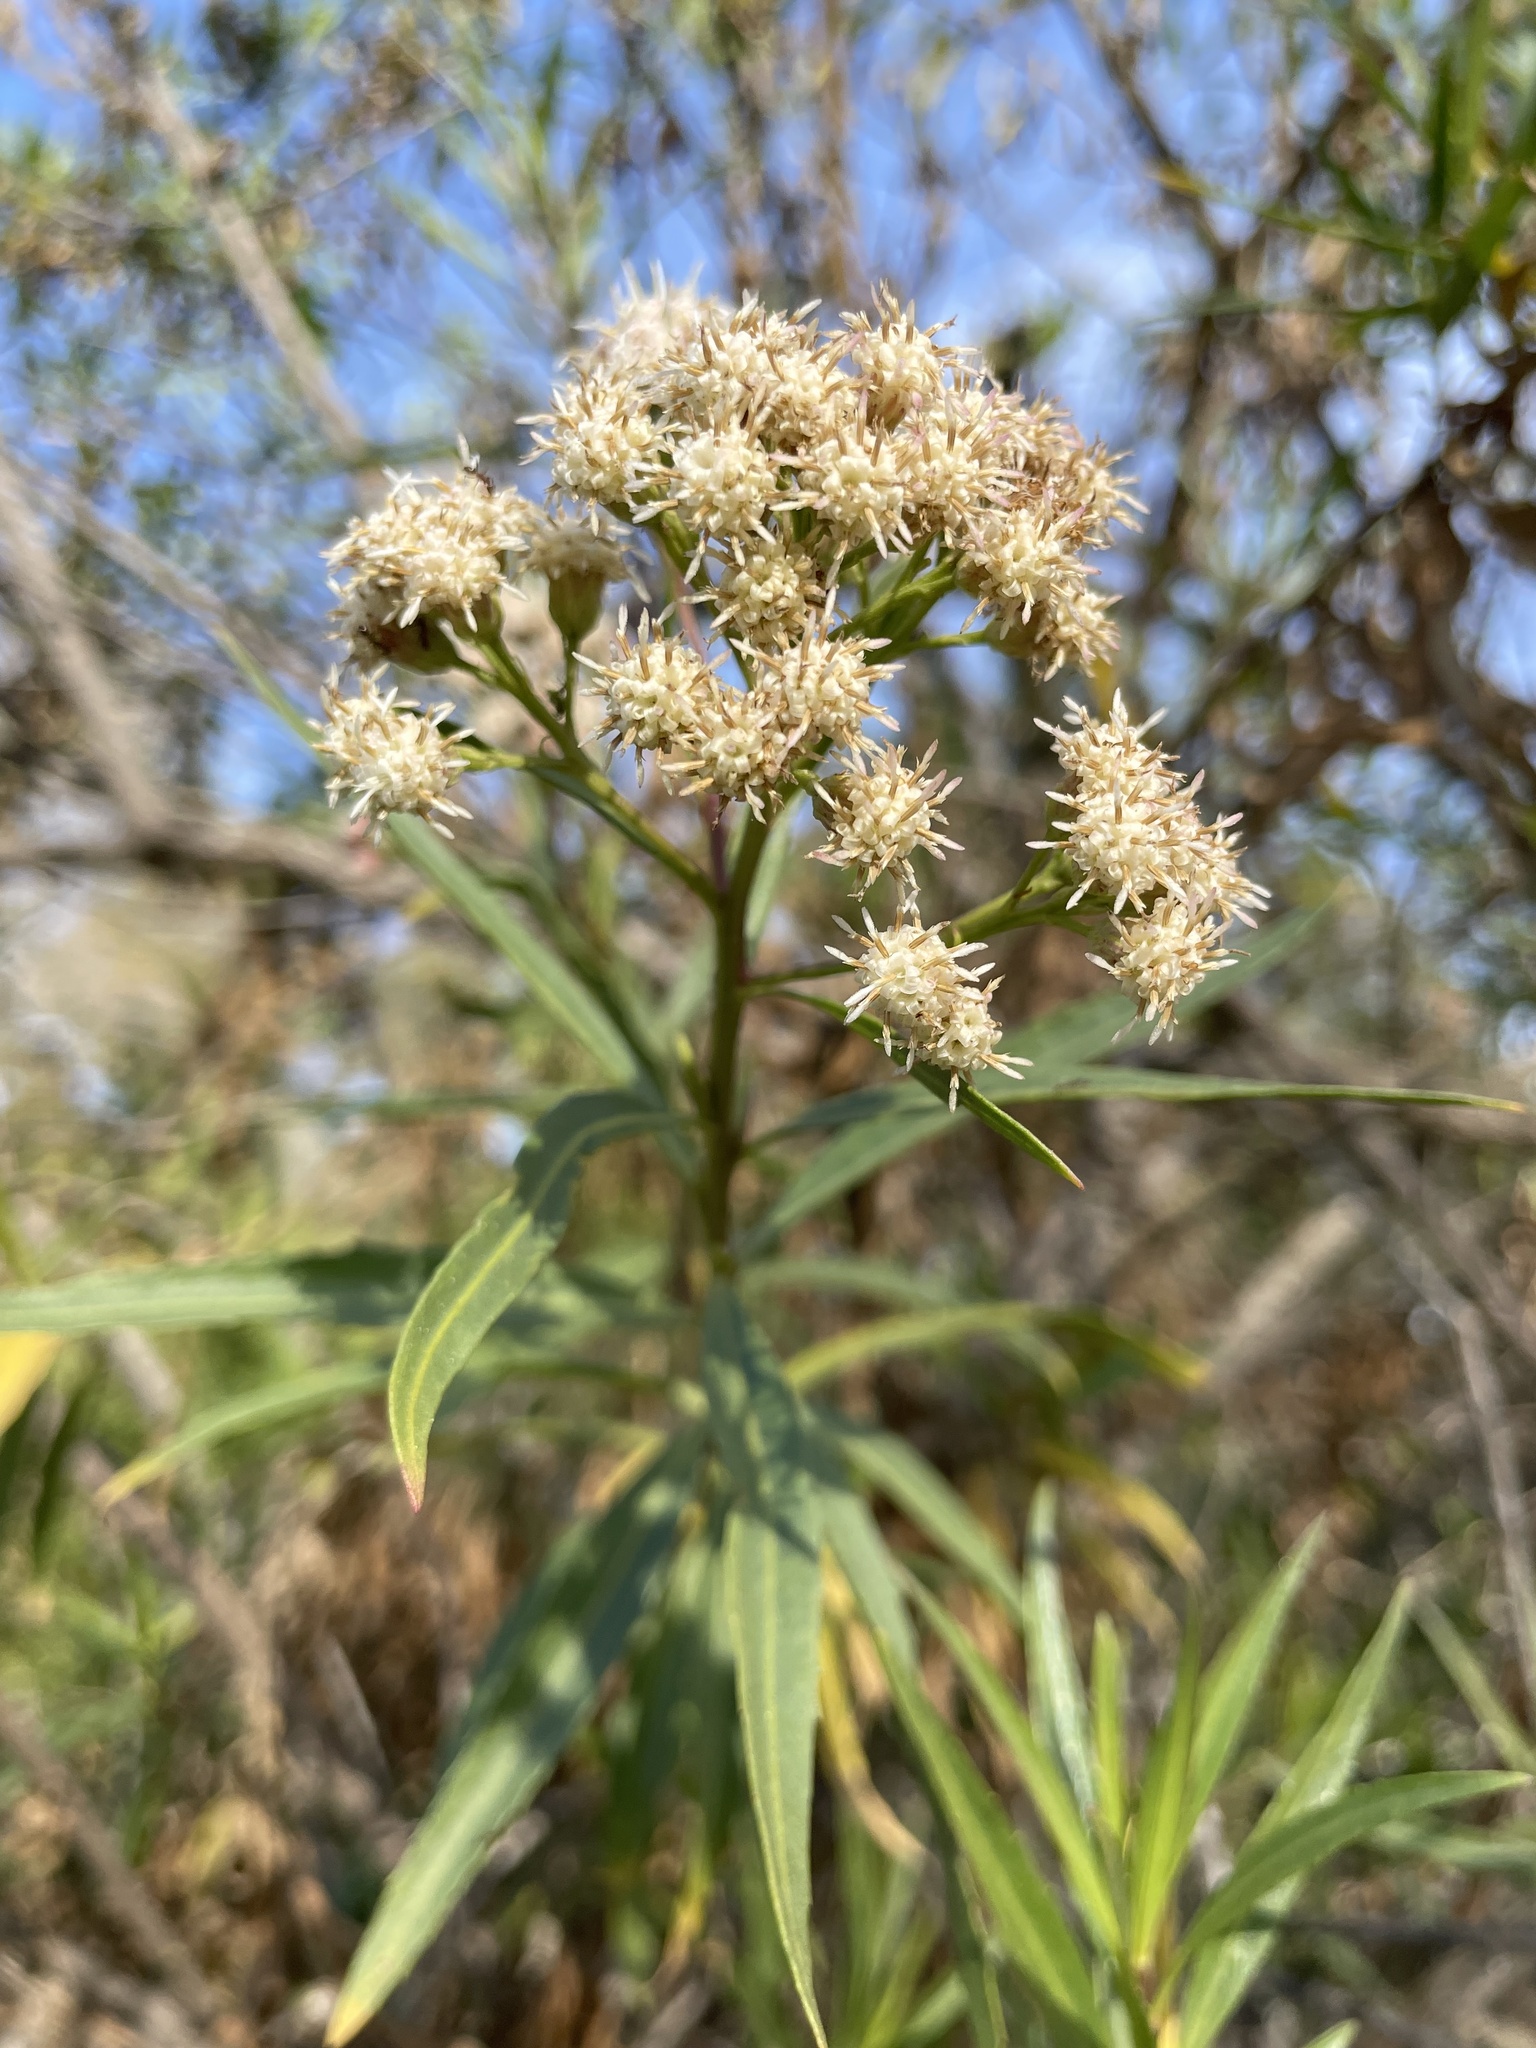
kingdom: Plantae
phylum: Tracheophyta
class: Magnoliopsida
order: Asterales
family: Asteraceae
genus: Baccharis
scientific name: Baccharis salicifolia
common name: Sticky baccharis
